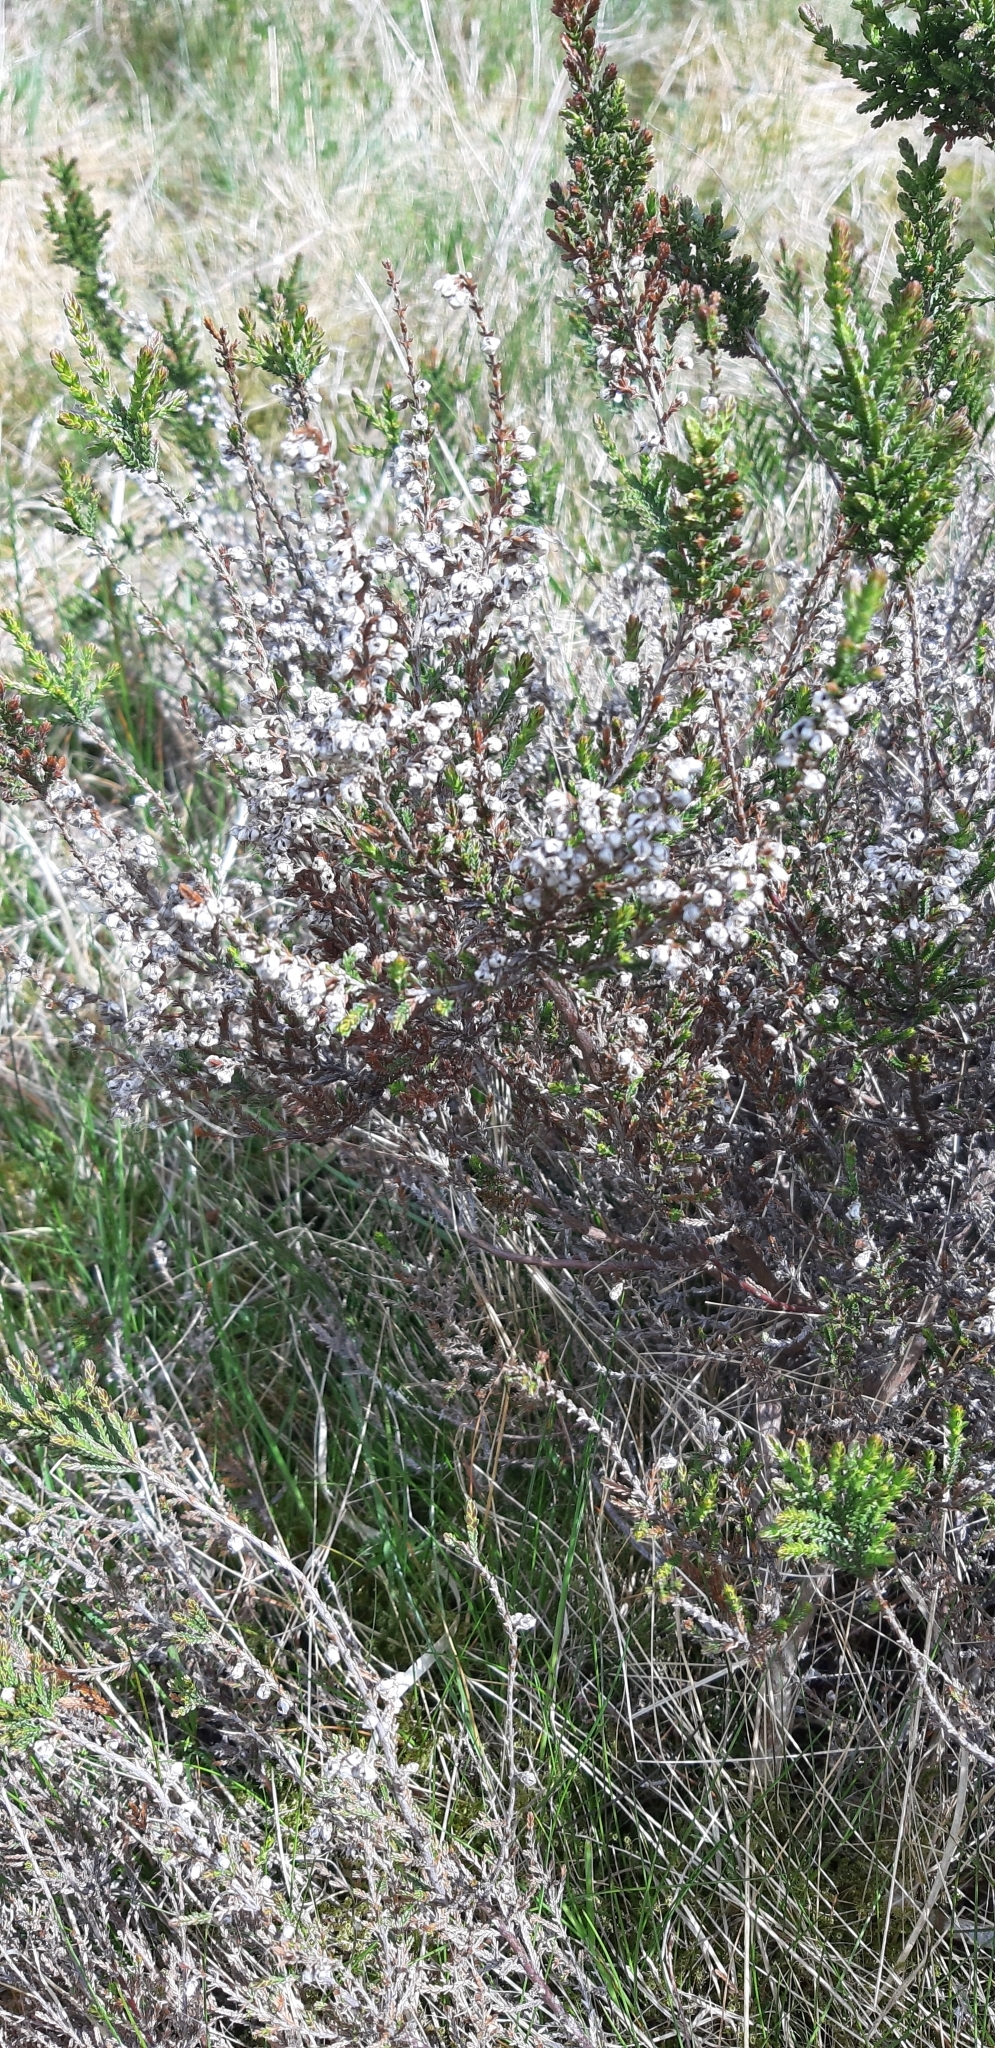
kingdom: Plantae
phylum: Tracheophyta
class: Magnoliopsida
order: Ericales
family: Ericaceae
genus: Calluna
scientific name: Calluna vulgaris
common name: Heather
